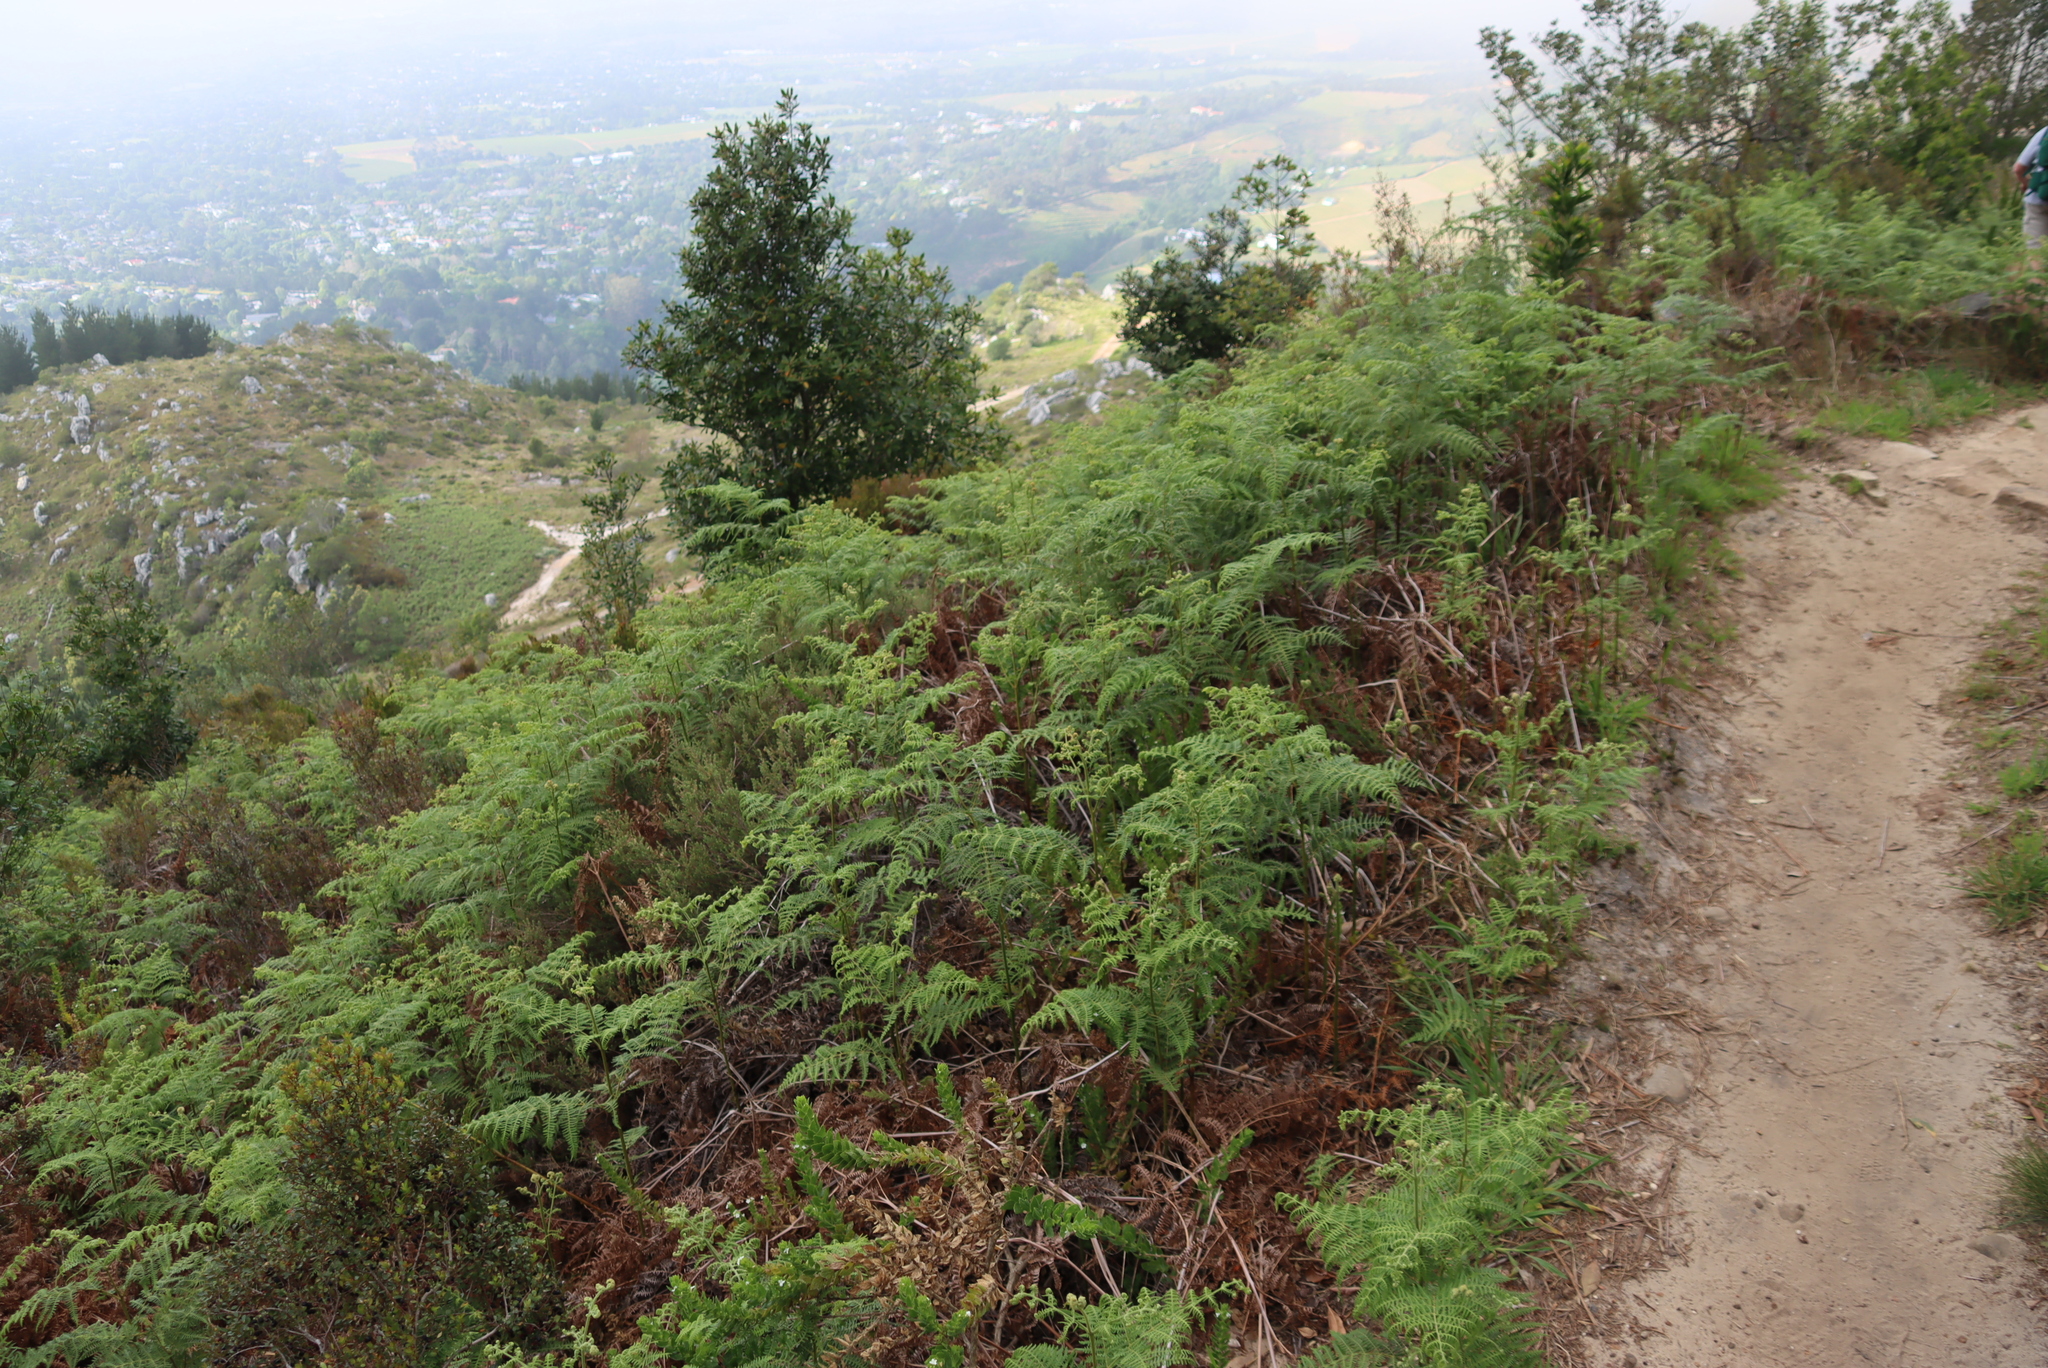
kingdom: Plantae
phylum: Tracheophyta
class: Polypodiopsida
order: Polypodiales
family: Dennstaedtiaceae
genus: Pteridium
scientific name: Pteridium aquilinum
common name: Bracken
